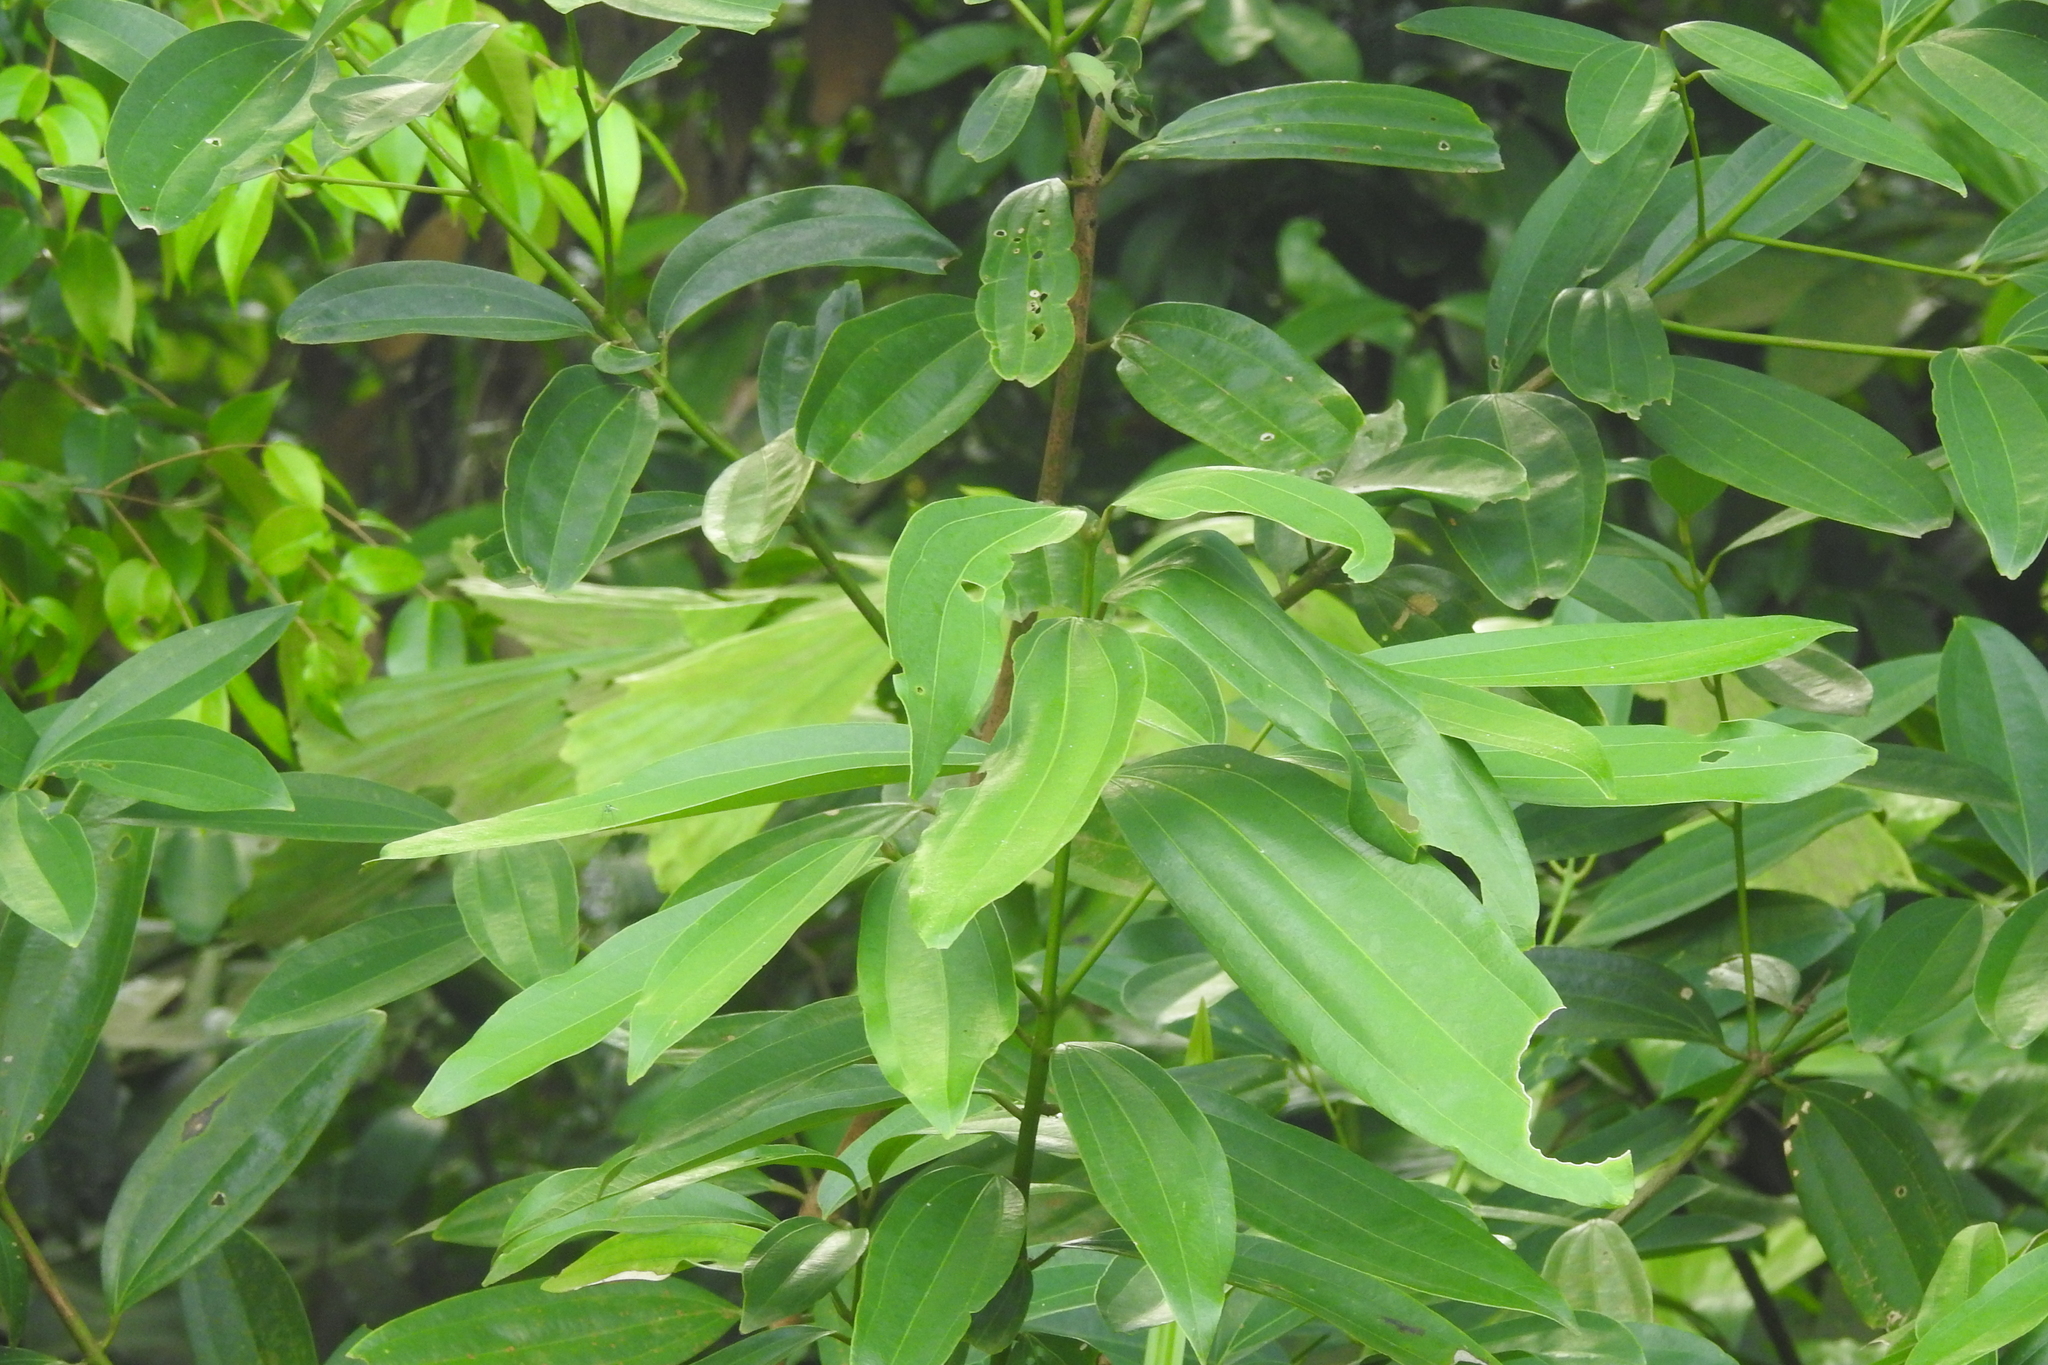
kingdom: Plantae
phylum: Tracheophyta
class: Magnoliopsida
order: Laurales
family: Lauraceae
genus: Cinnamomum
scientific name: Cinnamomum iners
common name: Wild cinnamon
